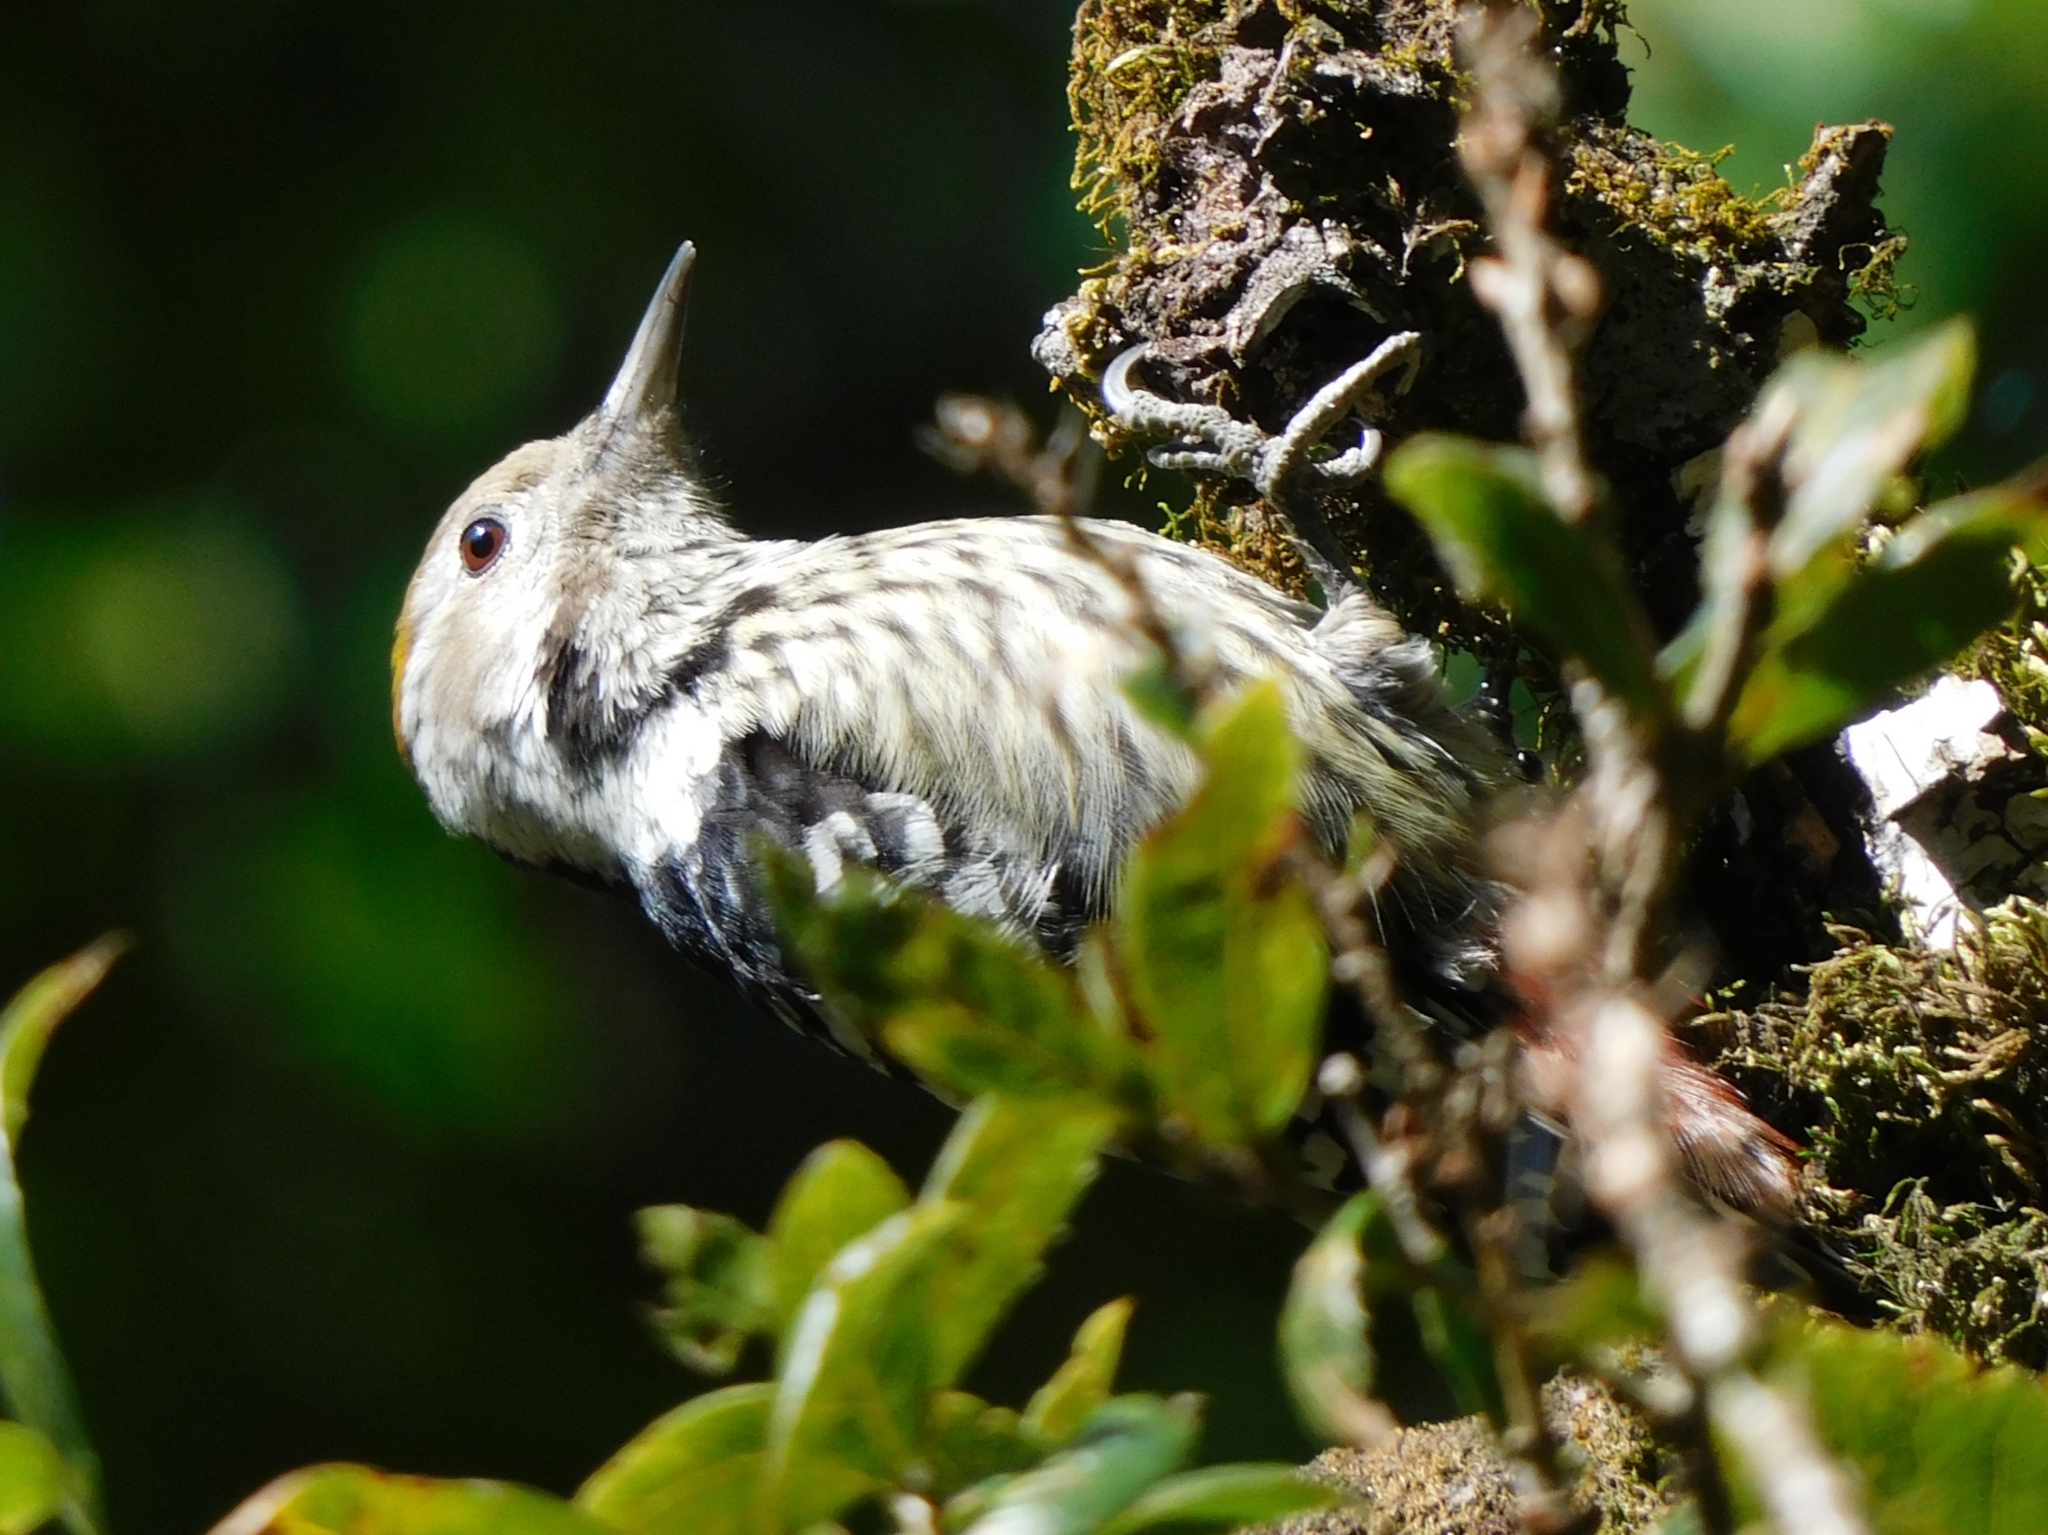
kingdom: Animalia
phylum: Chordata
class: Aves
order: Piciformes
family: Picidae
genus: Dendrocoptes
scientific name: Dendrocoptes auriceps
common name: Brown-fronted woodpecker
